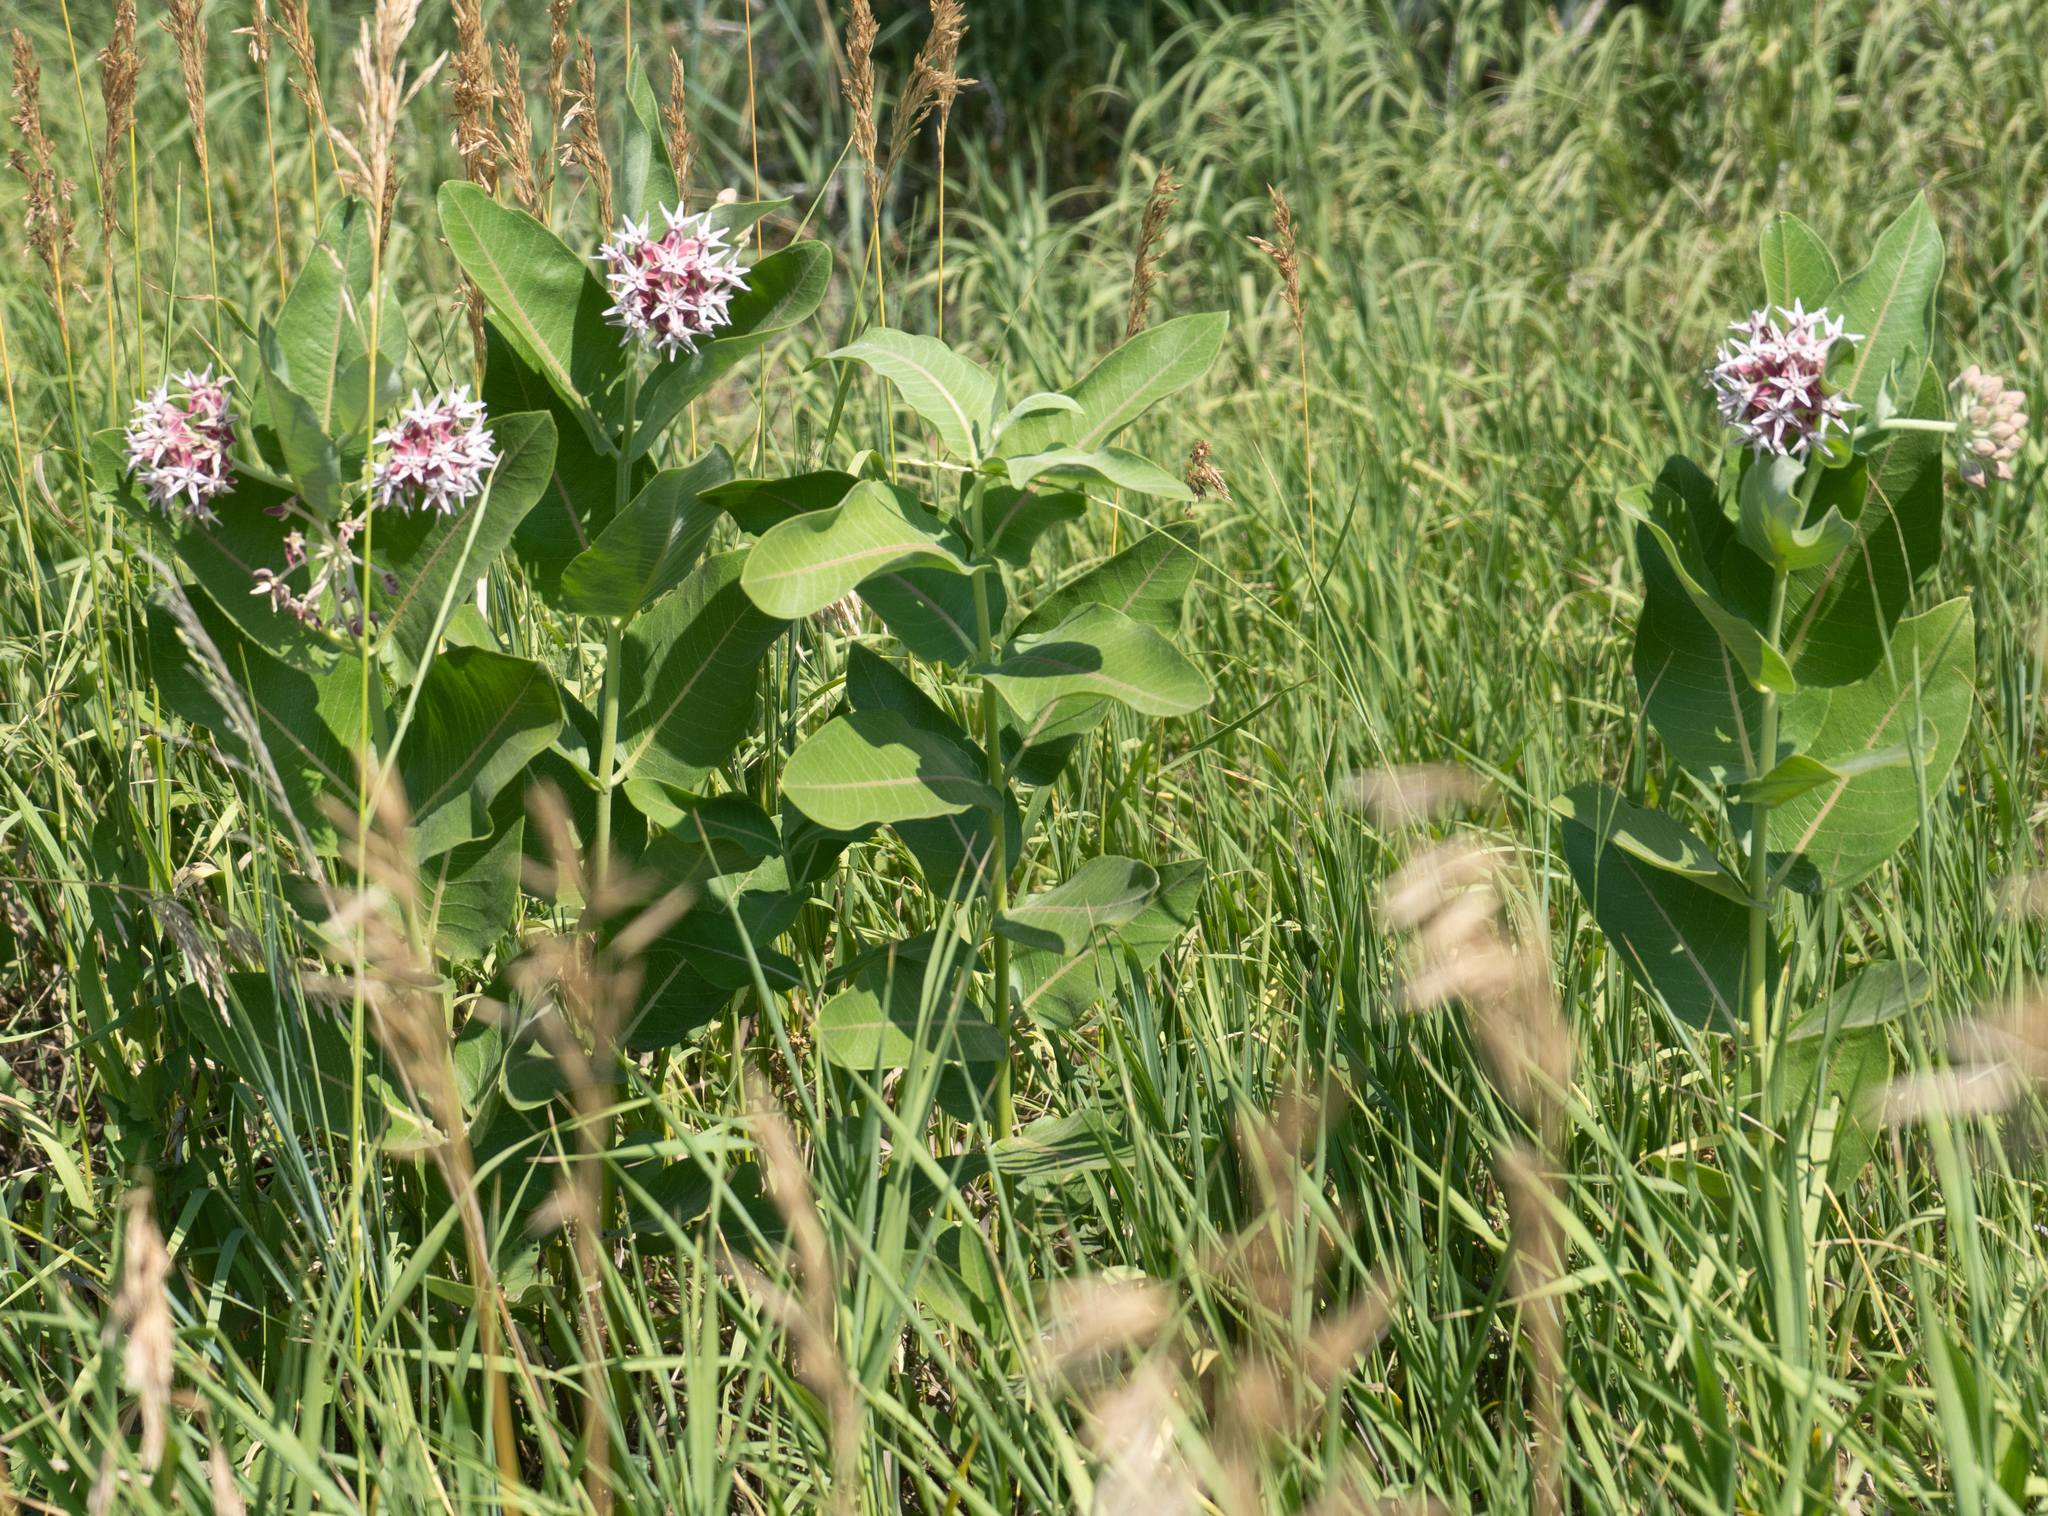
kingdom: Plantae
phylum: Tracheophyta
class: Magnoliopsida
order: Gentianales
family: Apocynaceae
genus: Asclepias
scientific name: Asclepias speciosa
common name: Showy milkweed
